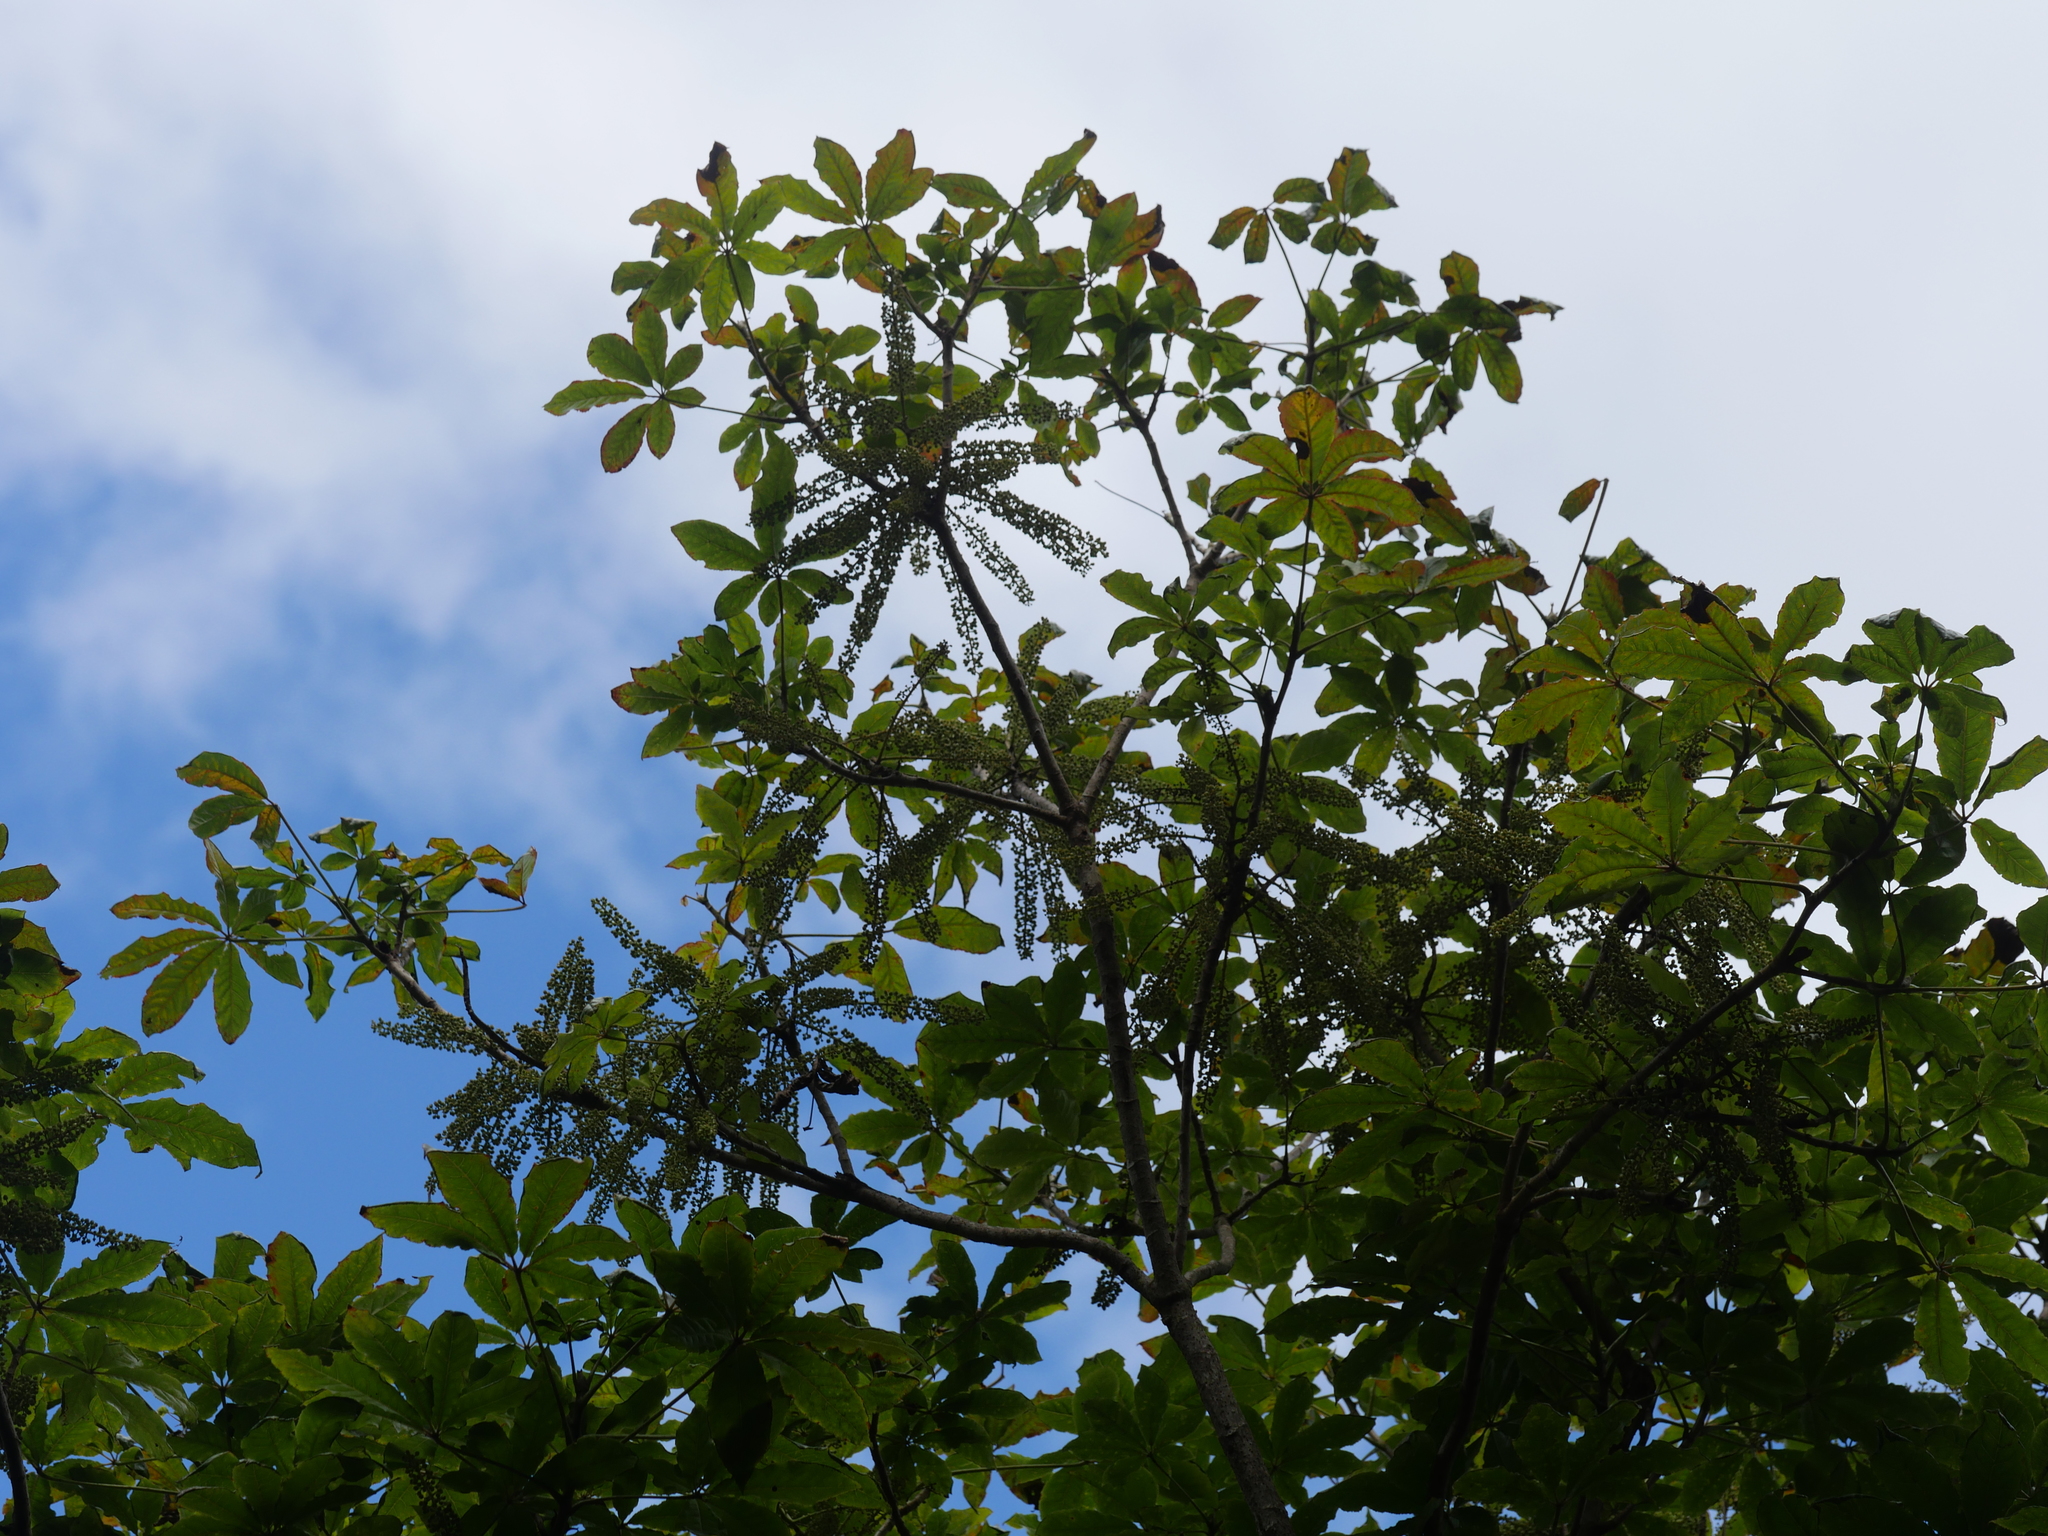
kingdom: Plantae
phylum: Tracheophyta
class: Magnoliopsida
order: Apiales
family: Araliaceae
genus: Schefflera
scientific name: Schefflera digitata
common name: Pate
